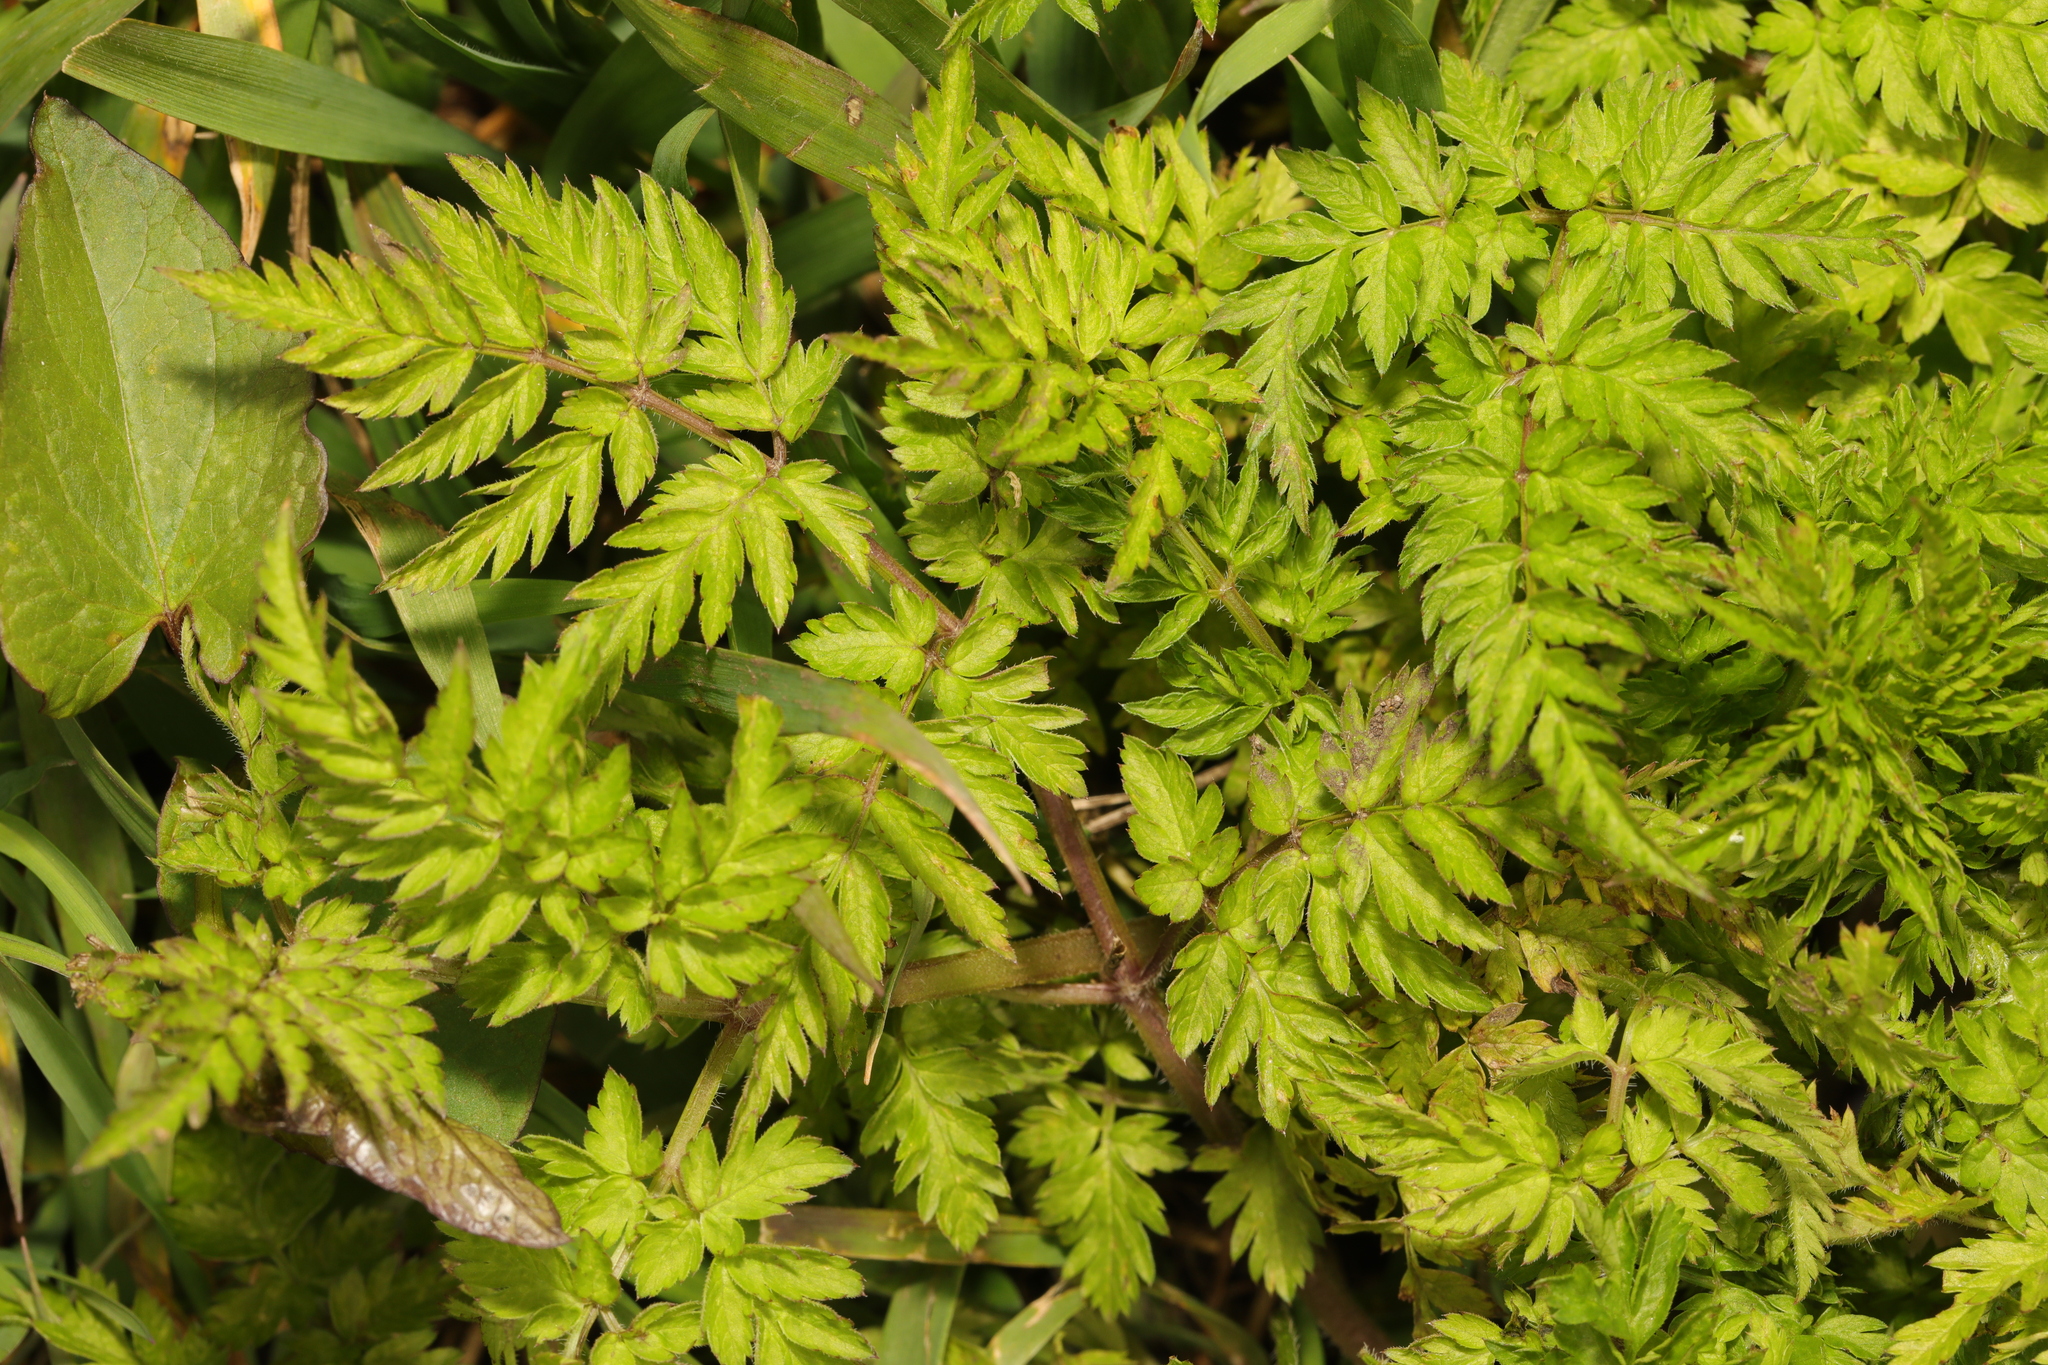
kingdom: Plantae
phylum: Tracheophyta
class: Magnoliopsida
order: Apiales
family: Apiaceae
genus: Anthriscus
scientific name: Anthriscus sylvestris
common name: Cow parsley
